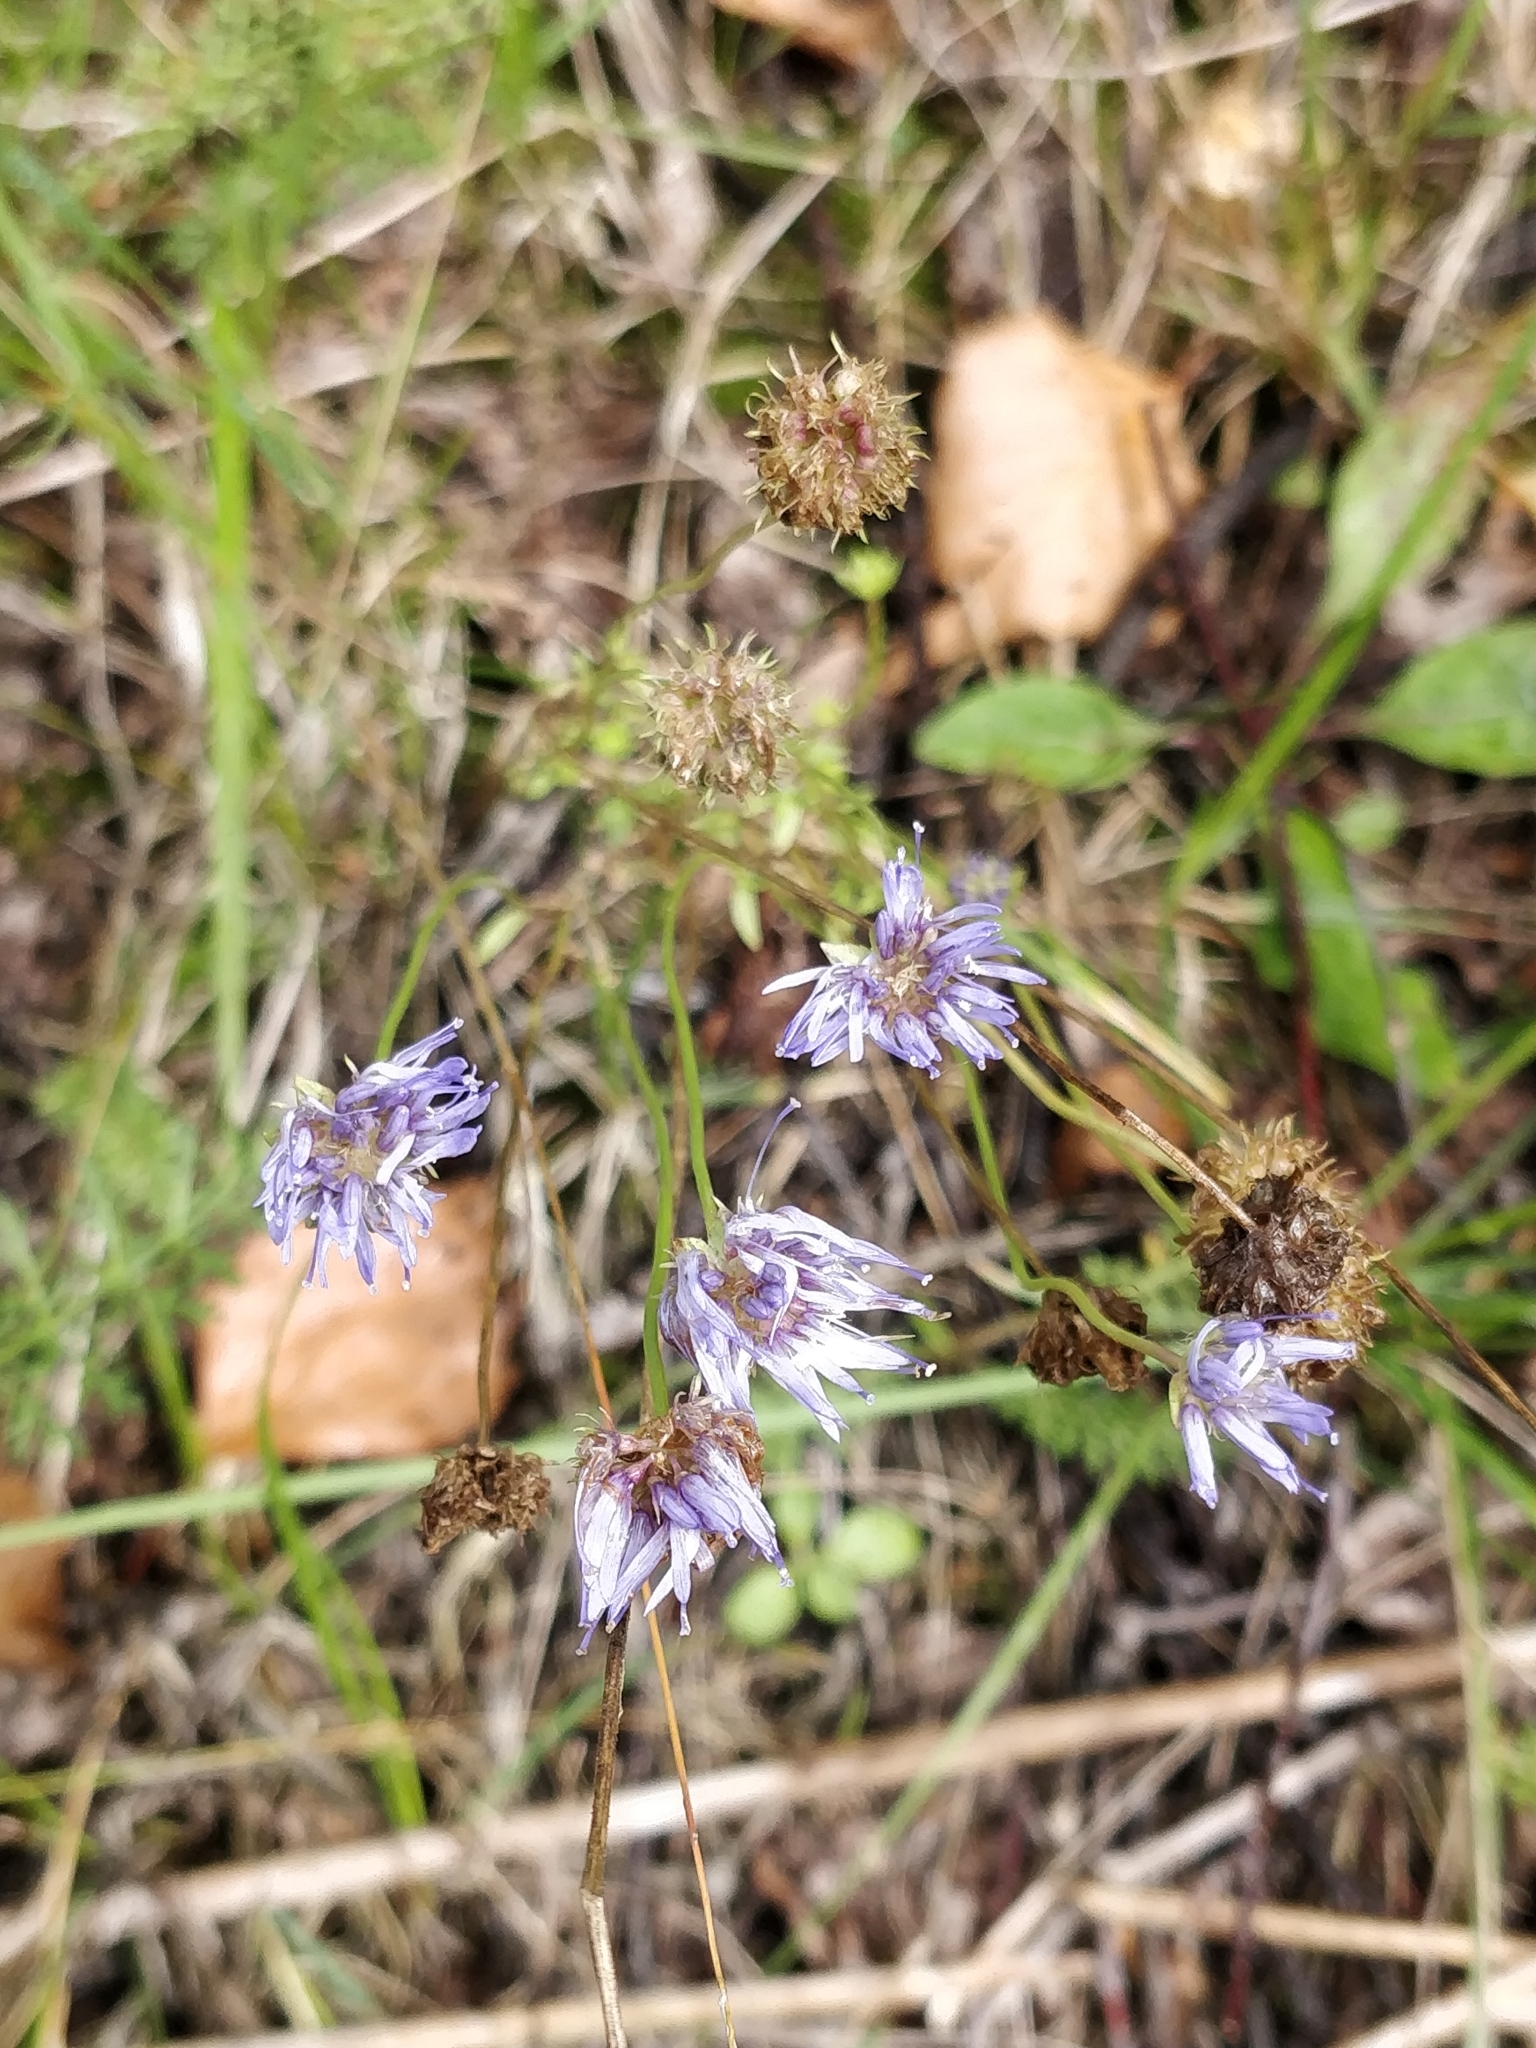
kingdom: Plantae
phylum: Tracheophyta
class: Magnoliopsida
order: Asterales
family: Campanulaceae
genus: Jasione
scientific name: Jasione montana
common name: Sheep's-bit
